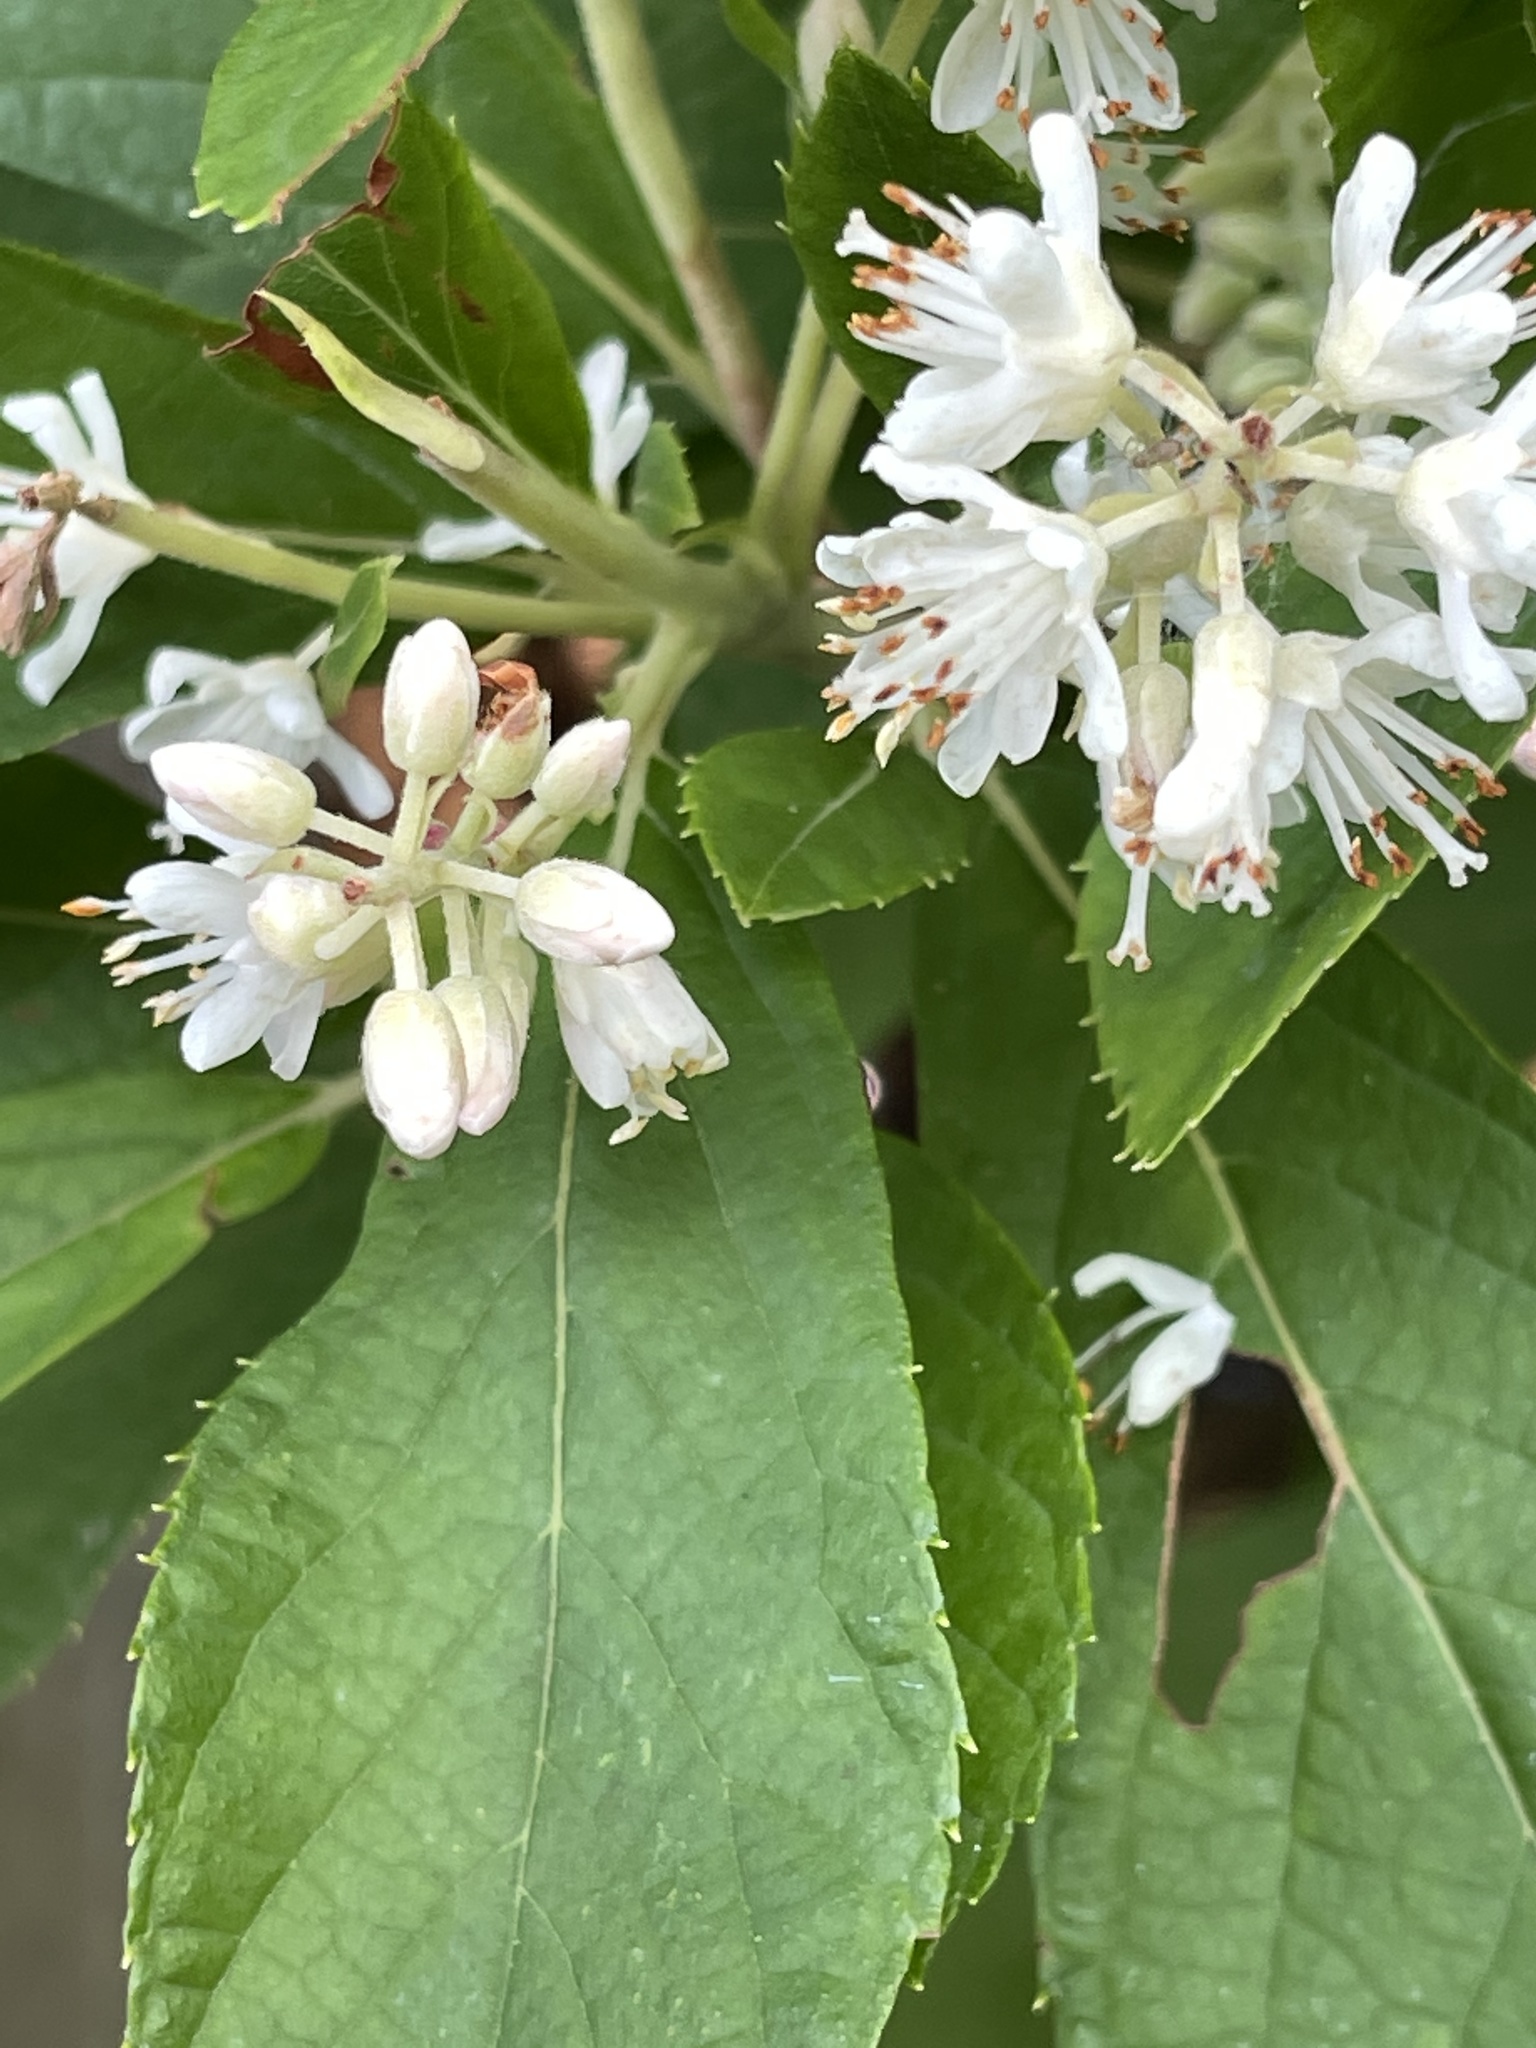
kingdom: Animalia
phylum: Arthropoda
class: Insecta
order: Hymenoptera
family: Apidae
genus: Bombus
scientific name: Bombus impatiens
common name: Common eastern bumble bee
